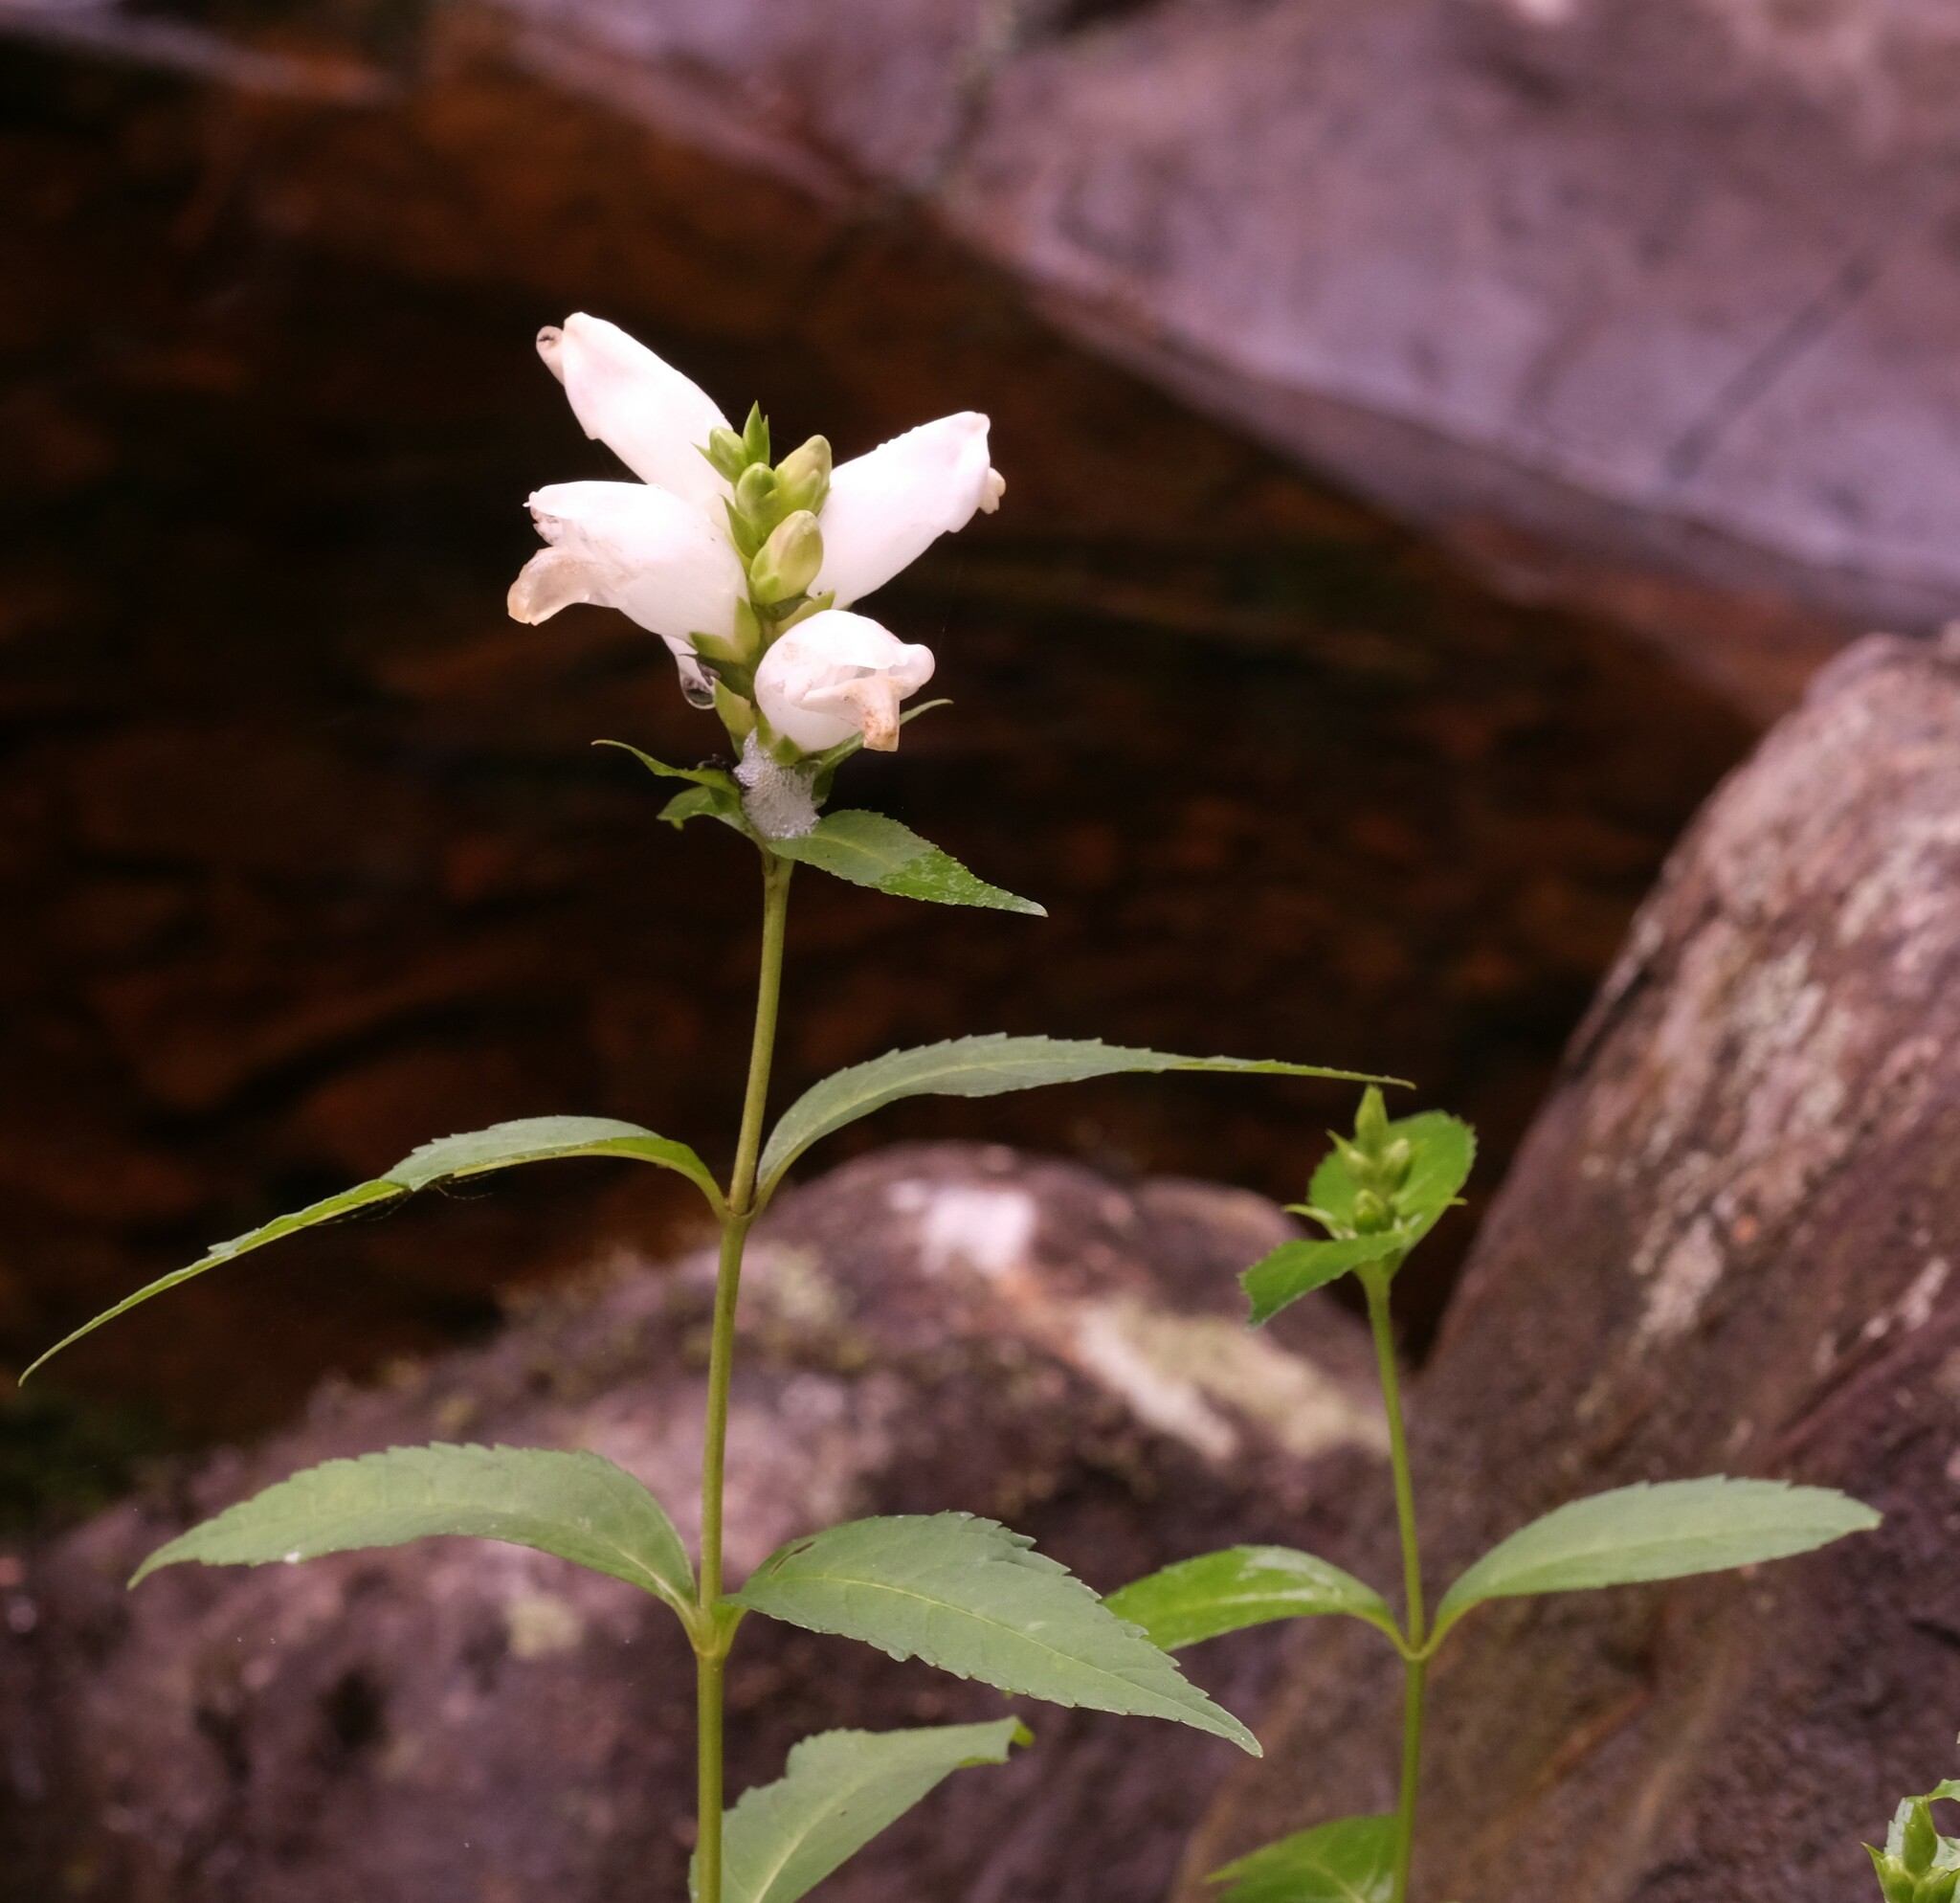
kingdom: Plantae
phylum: Tracheophyta
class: Magnoliopsida
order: Lamiales
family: Plantaginaceae
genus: Chelone
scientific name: Chelone glabra
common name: Snakehead
